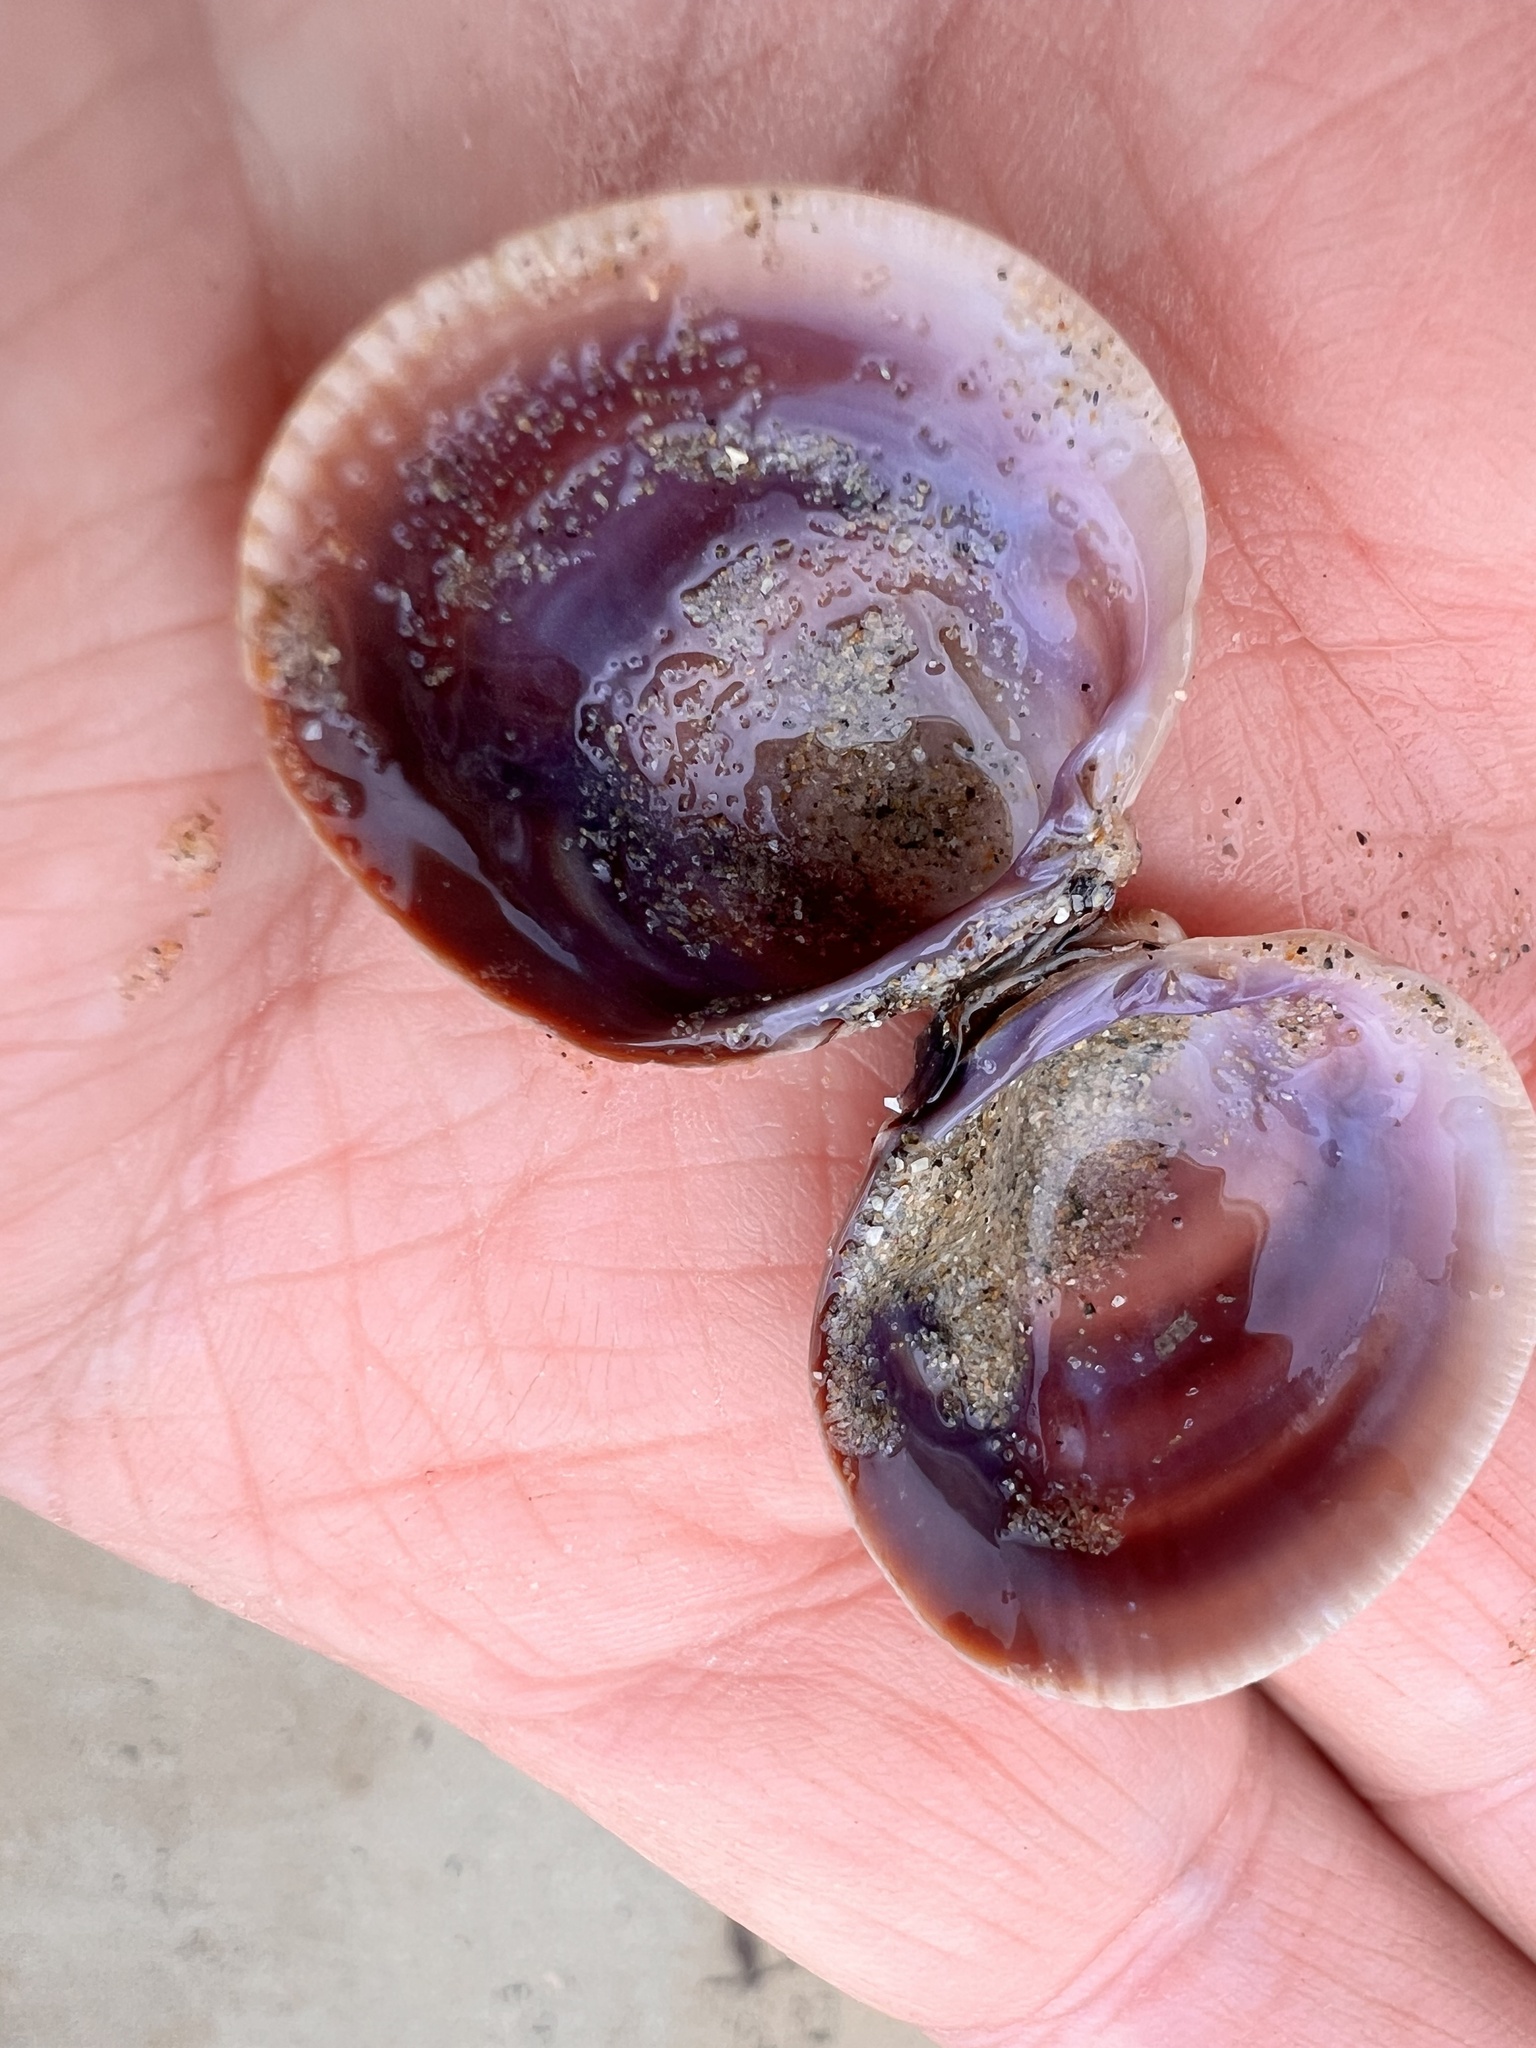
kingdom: Animalia
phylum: Mollusca
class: Bivalvia
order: Venerida
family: Veneridae
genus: Austrovenus
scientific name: Austrovenus stutchburyi
